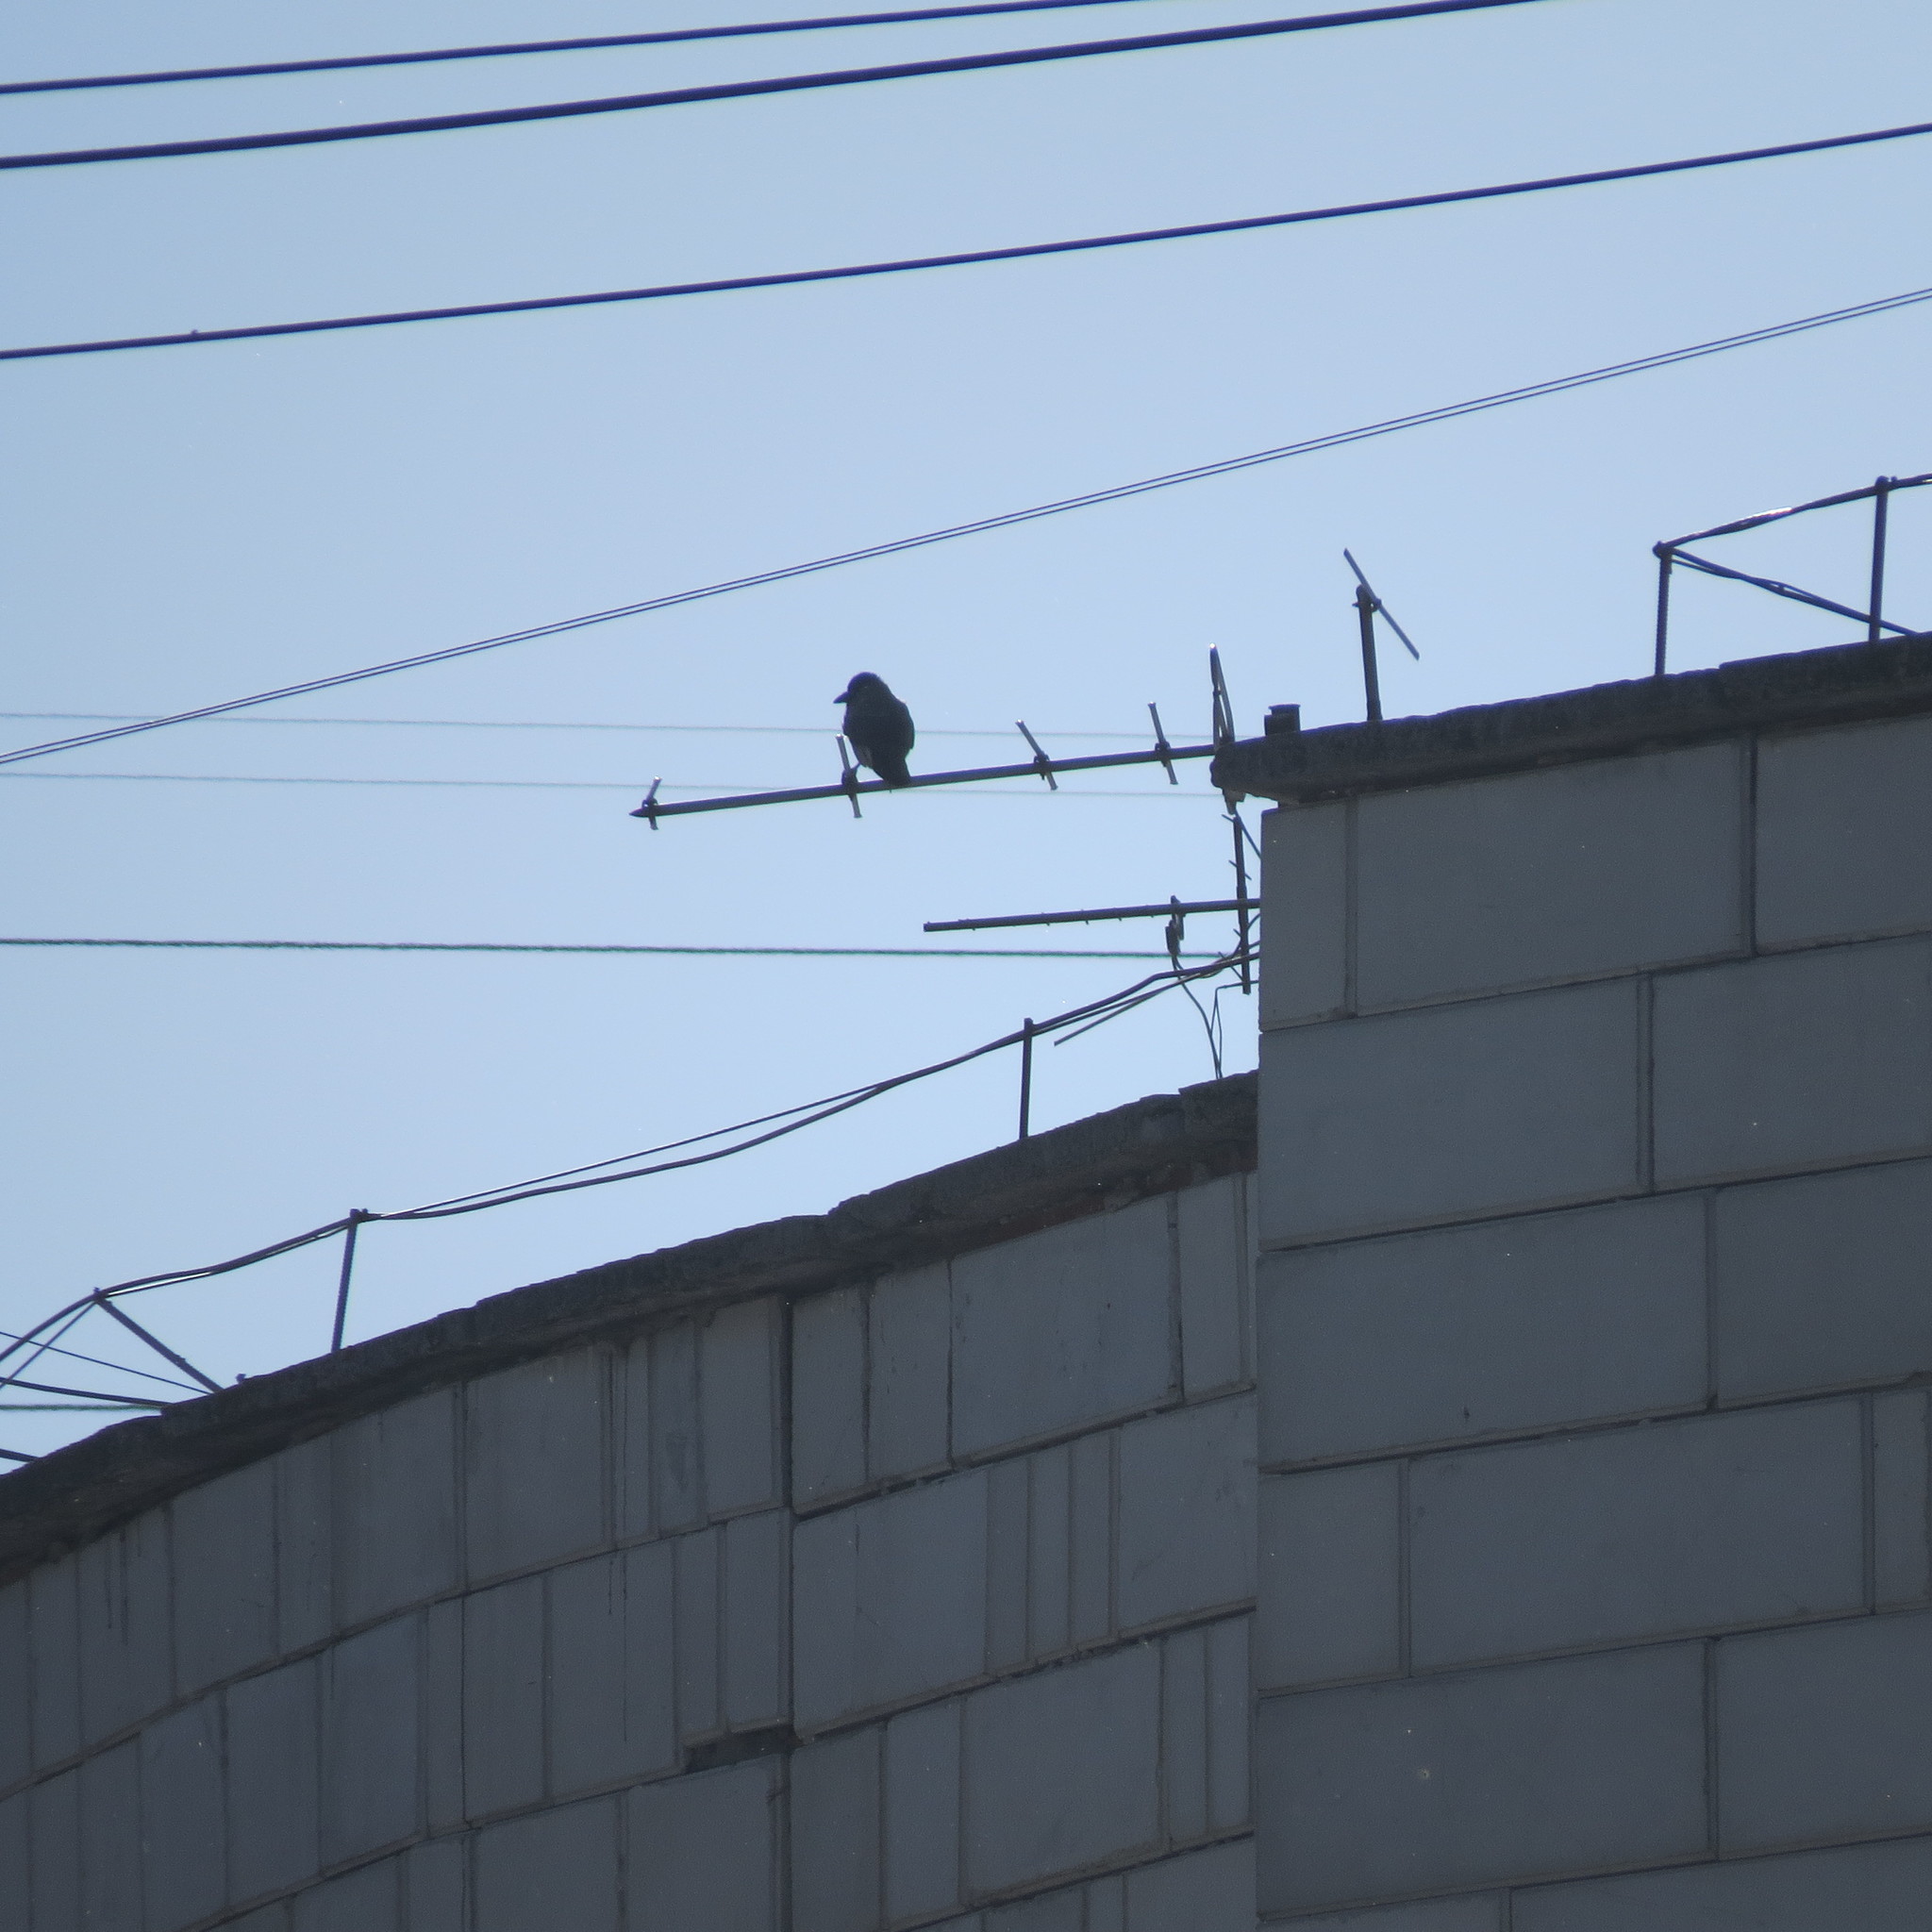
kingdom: Animalia
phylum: Chordata
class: Aves
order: Passeriformes
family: Corvidae
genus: Corvus
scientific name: Corvus cornix
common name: Hooded crow
